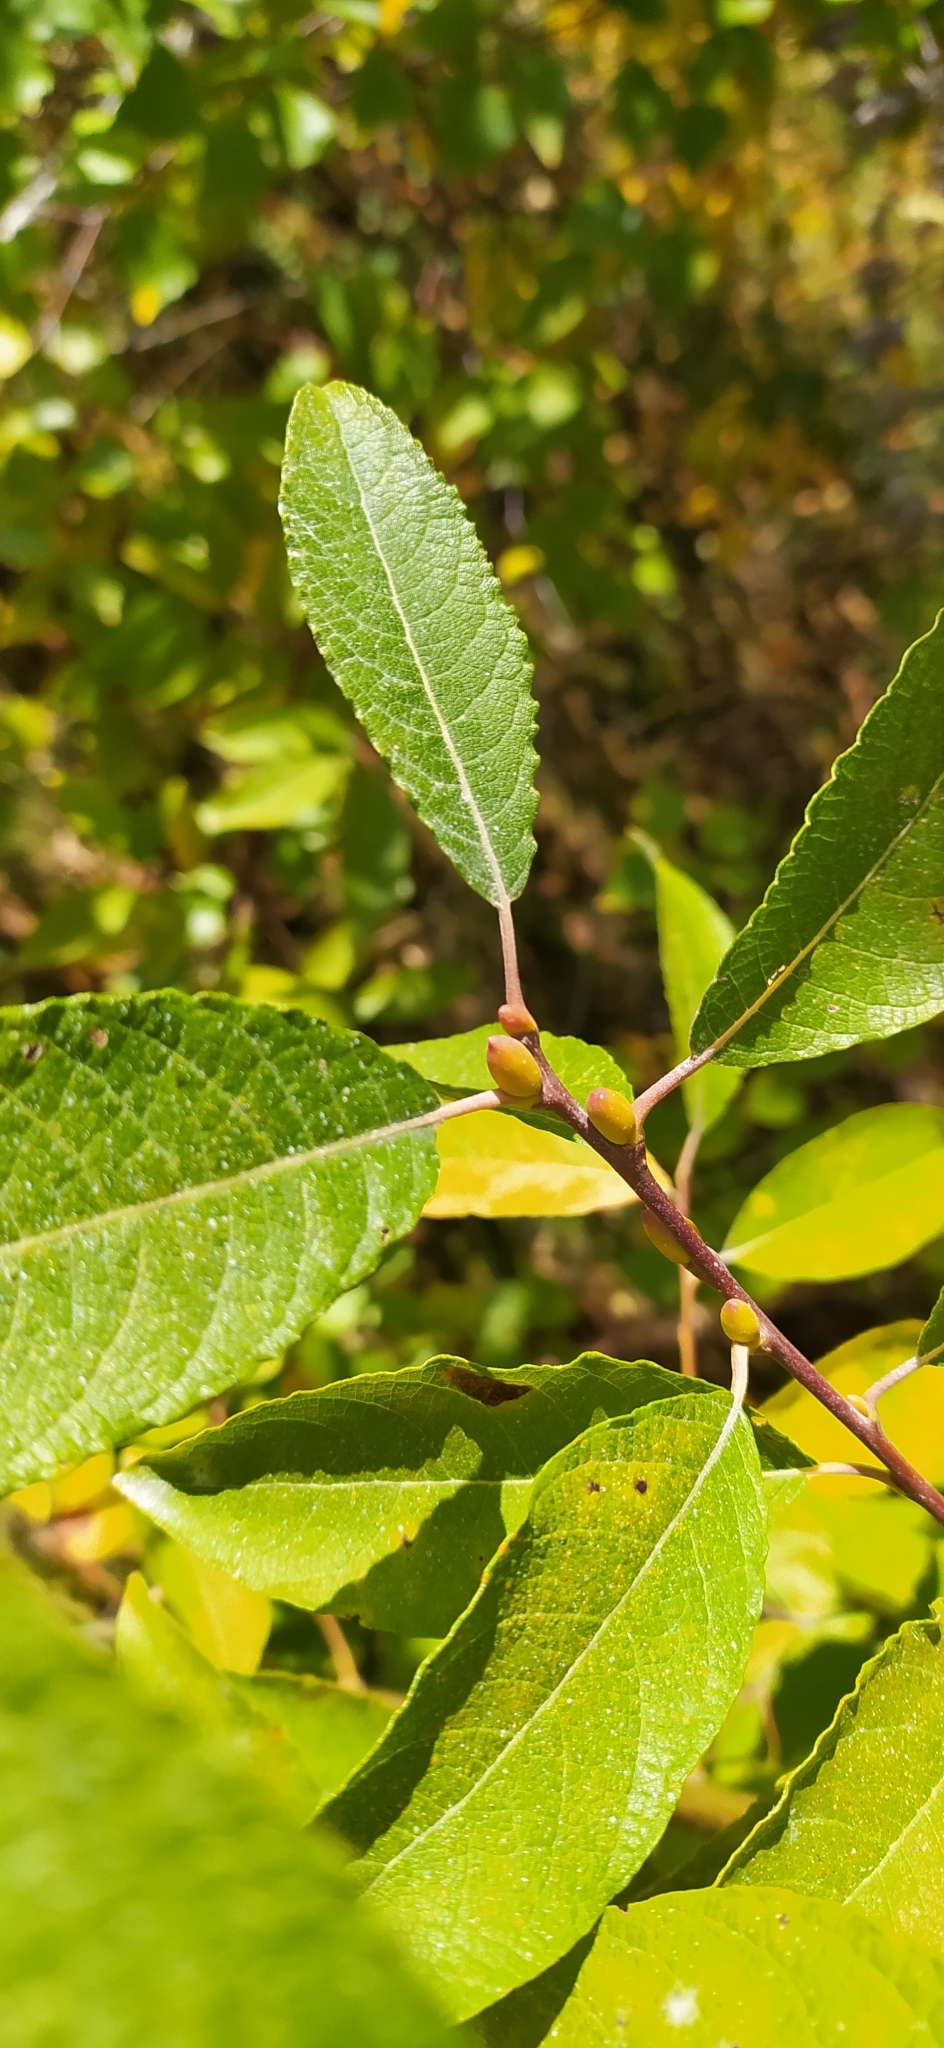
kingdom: Plantae
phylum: Tracheophyta
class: Magnoliopsida
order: Malpighiales
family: Salicaceae
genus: Salix
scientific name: Salix cinerea
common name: Common sallow
